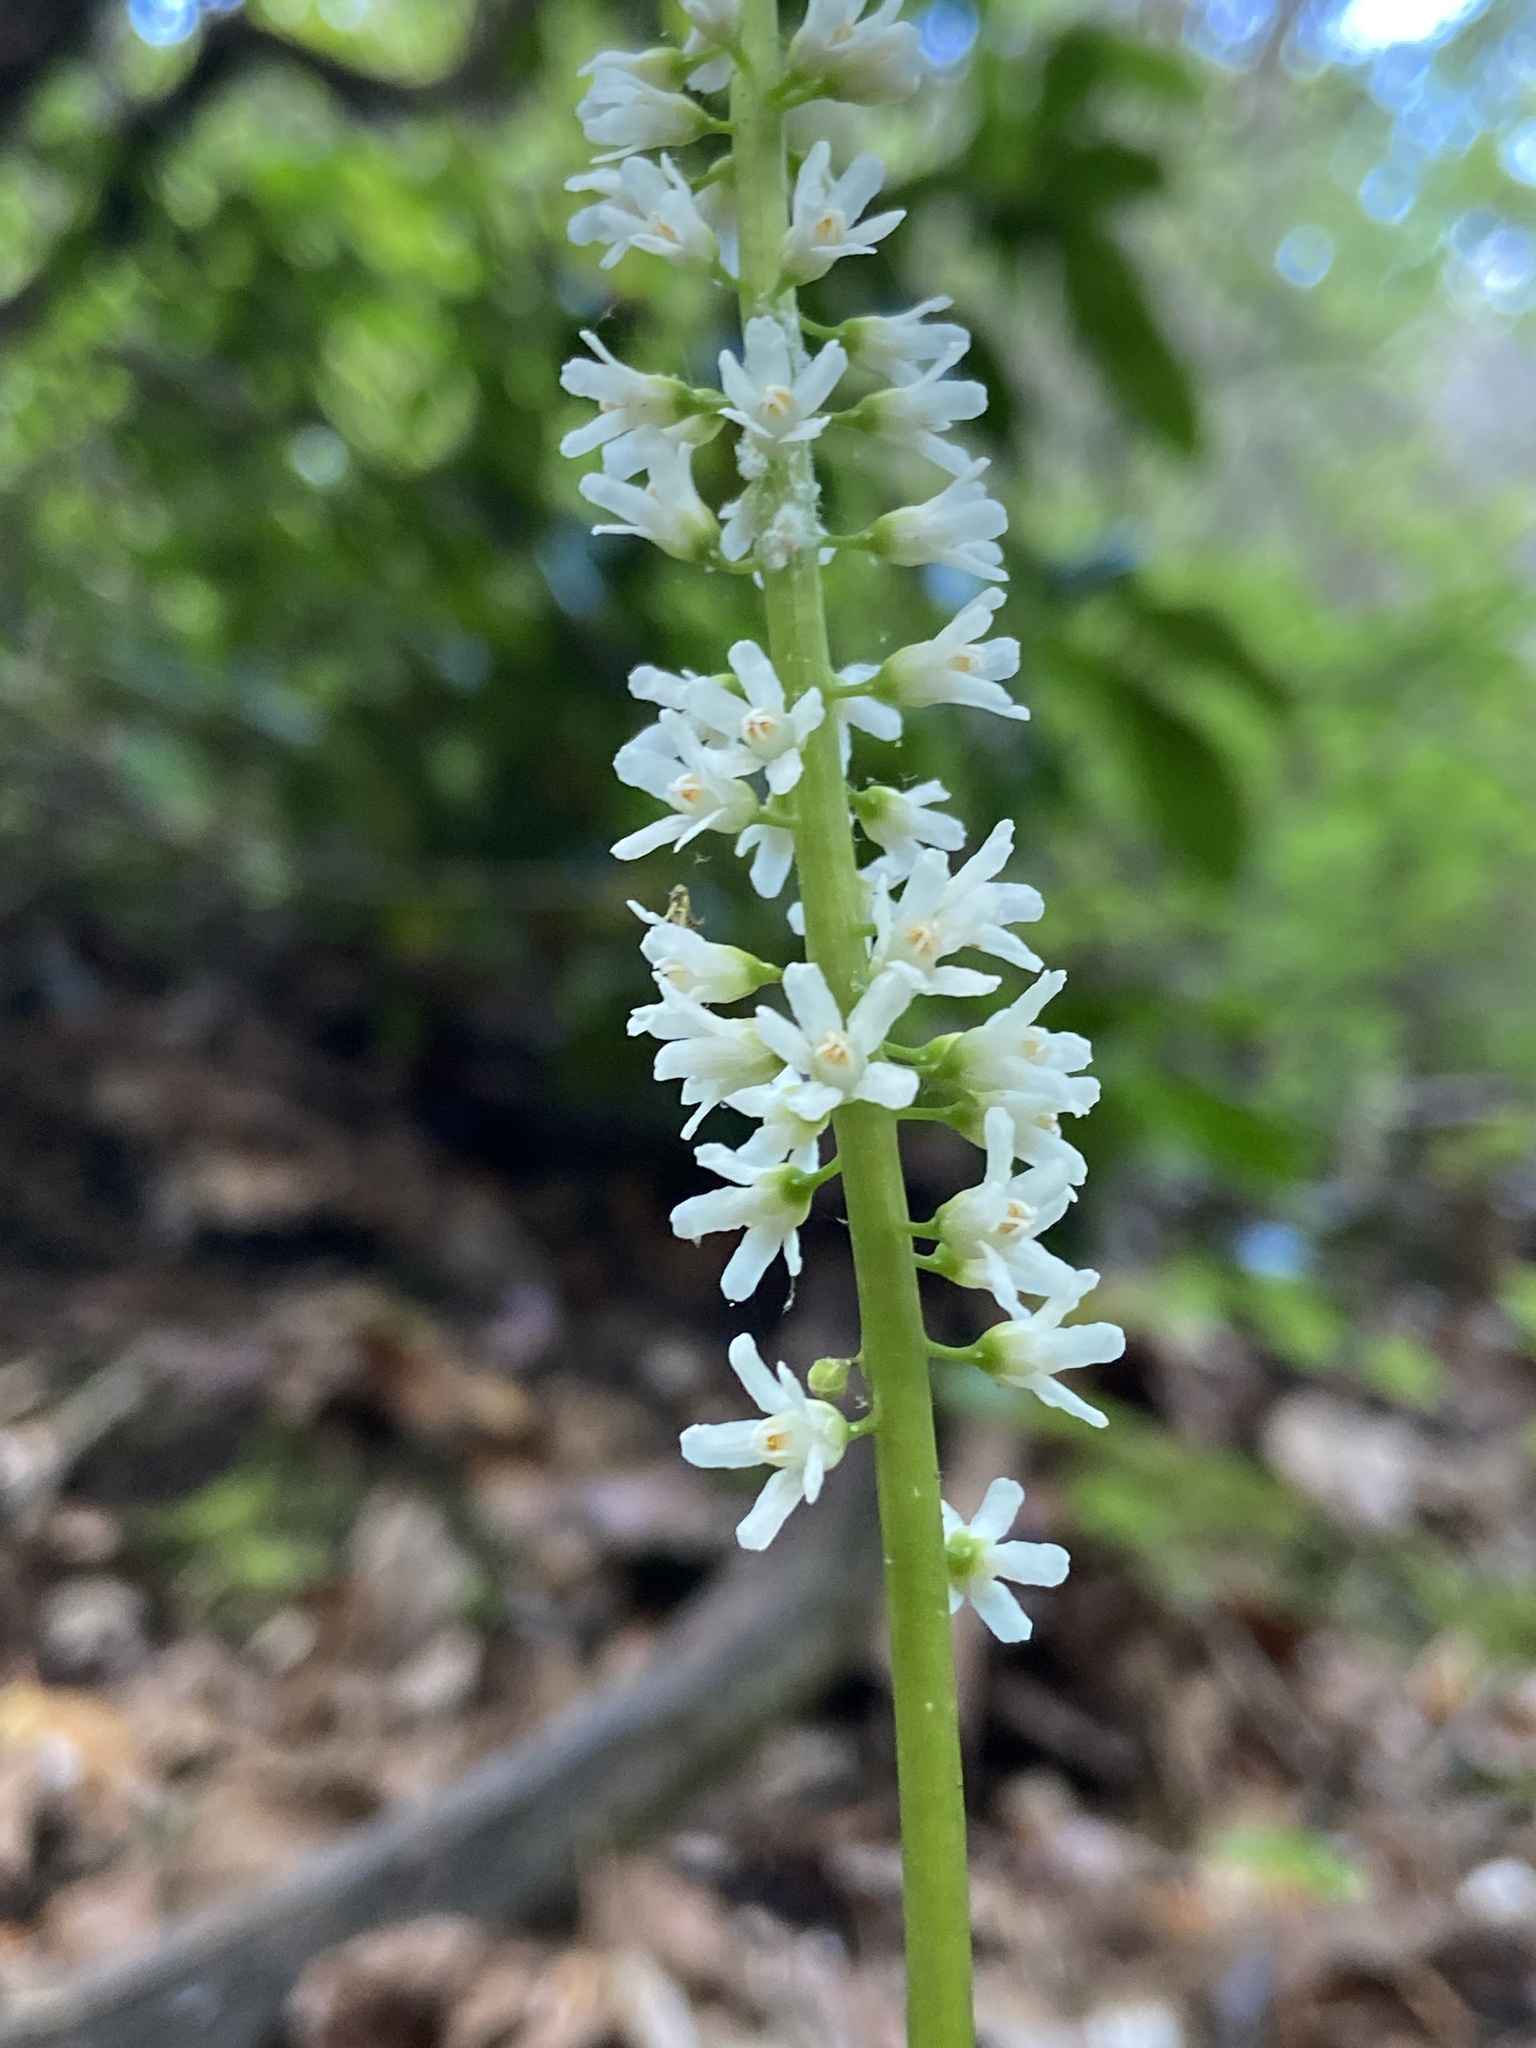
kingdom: Plantae
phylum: Tracheophyta
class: Magnoliopsida
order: Ericales
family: Diapensiaceae
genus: Galax
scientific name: Galax urceolata
